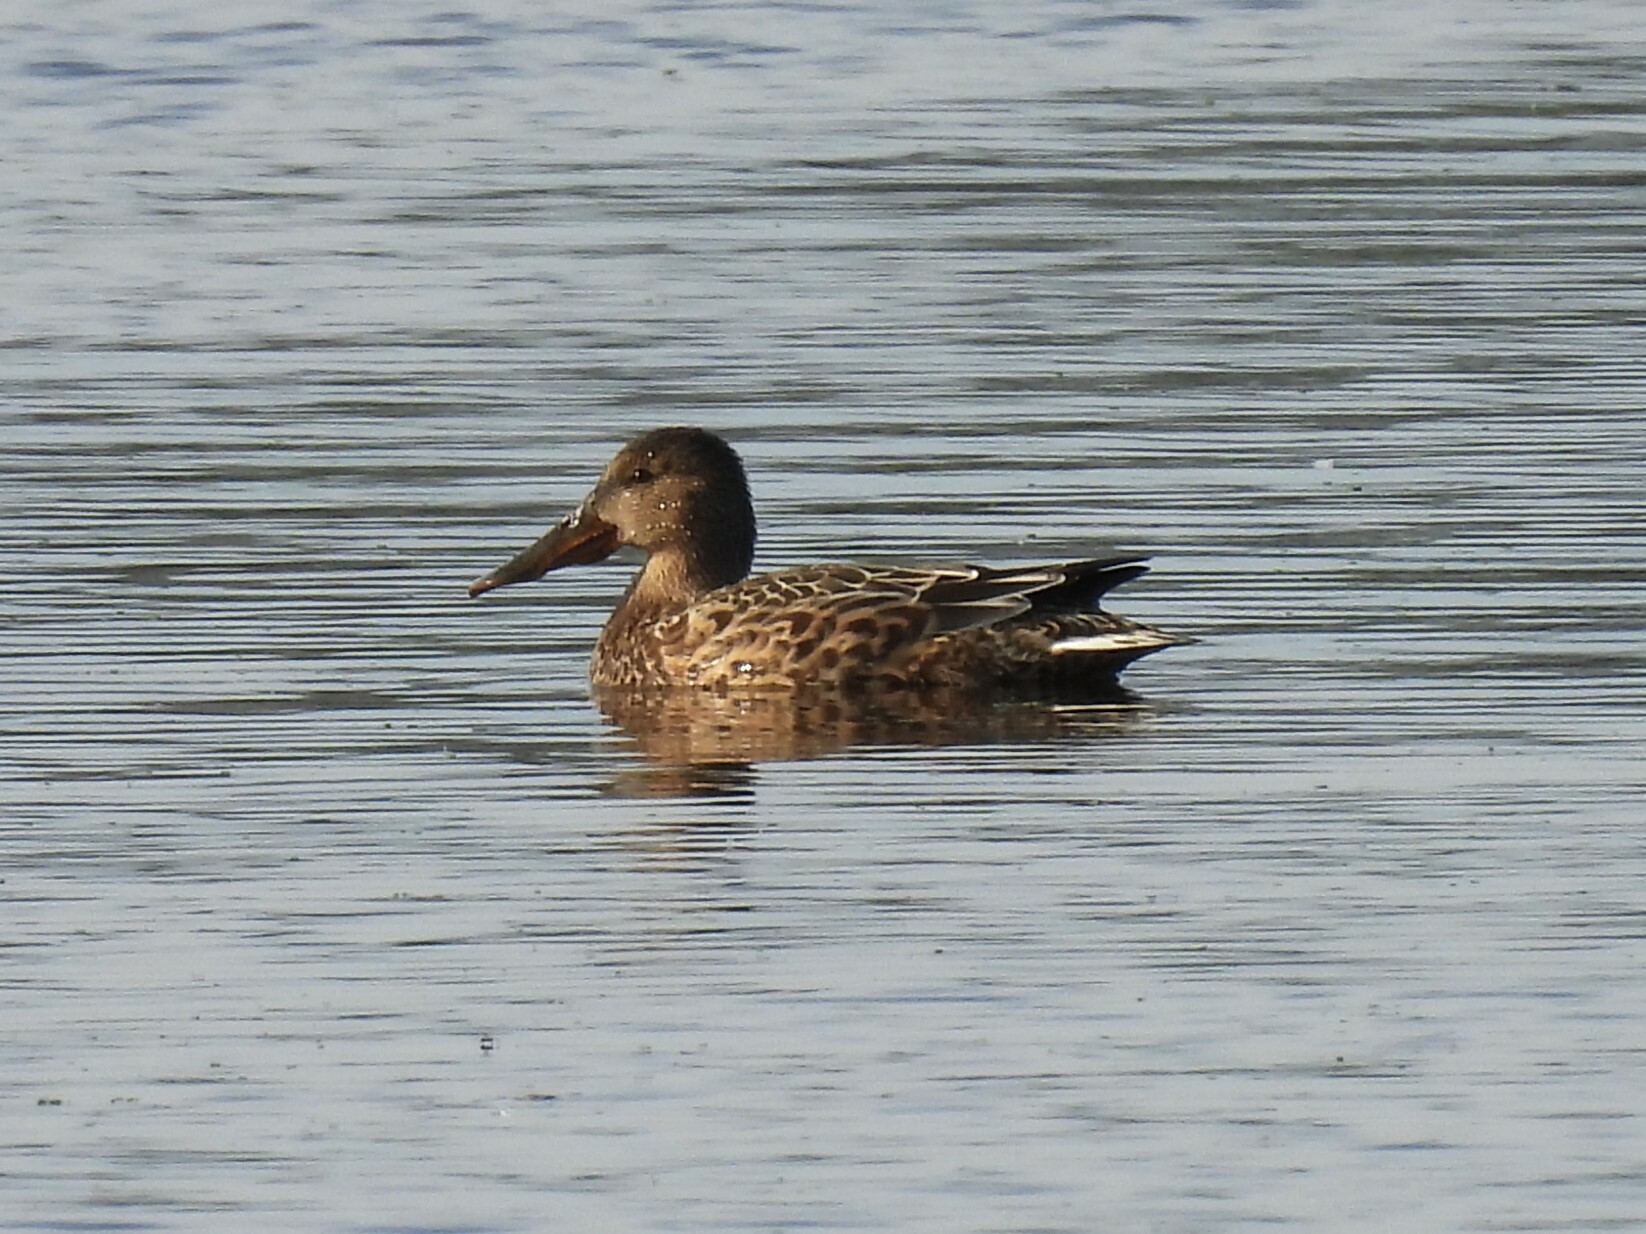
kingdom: Animalia
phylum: Chordata
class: Aves
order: Anseriformes
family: Anatidae
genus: Spatula
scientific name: Spatula clypeata
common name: Northern shoveler
